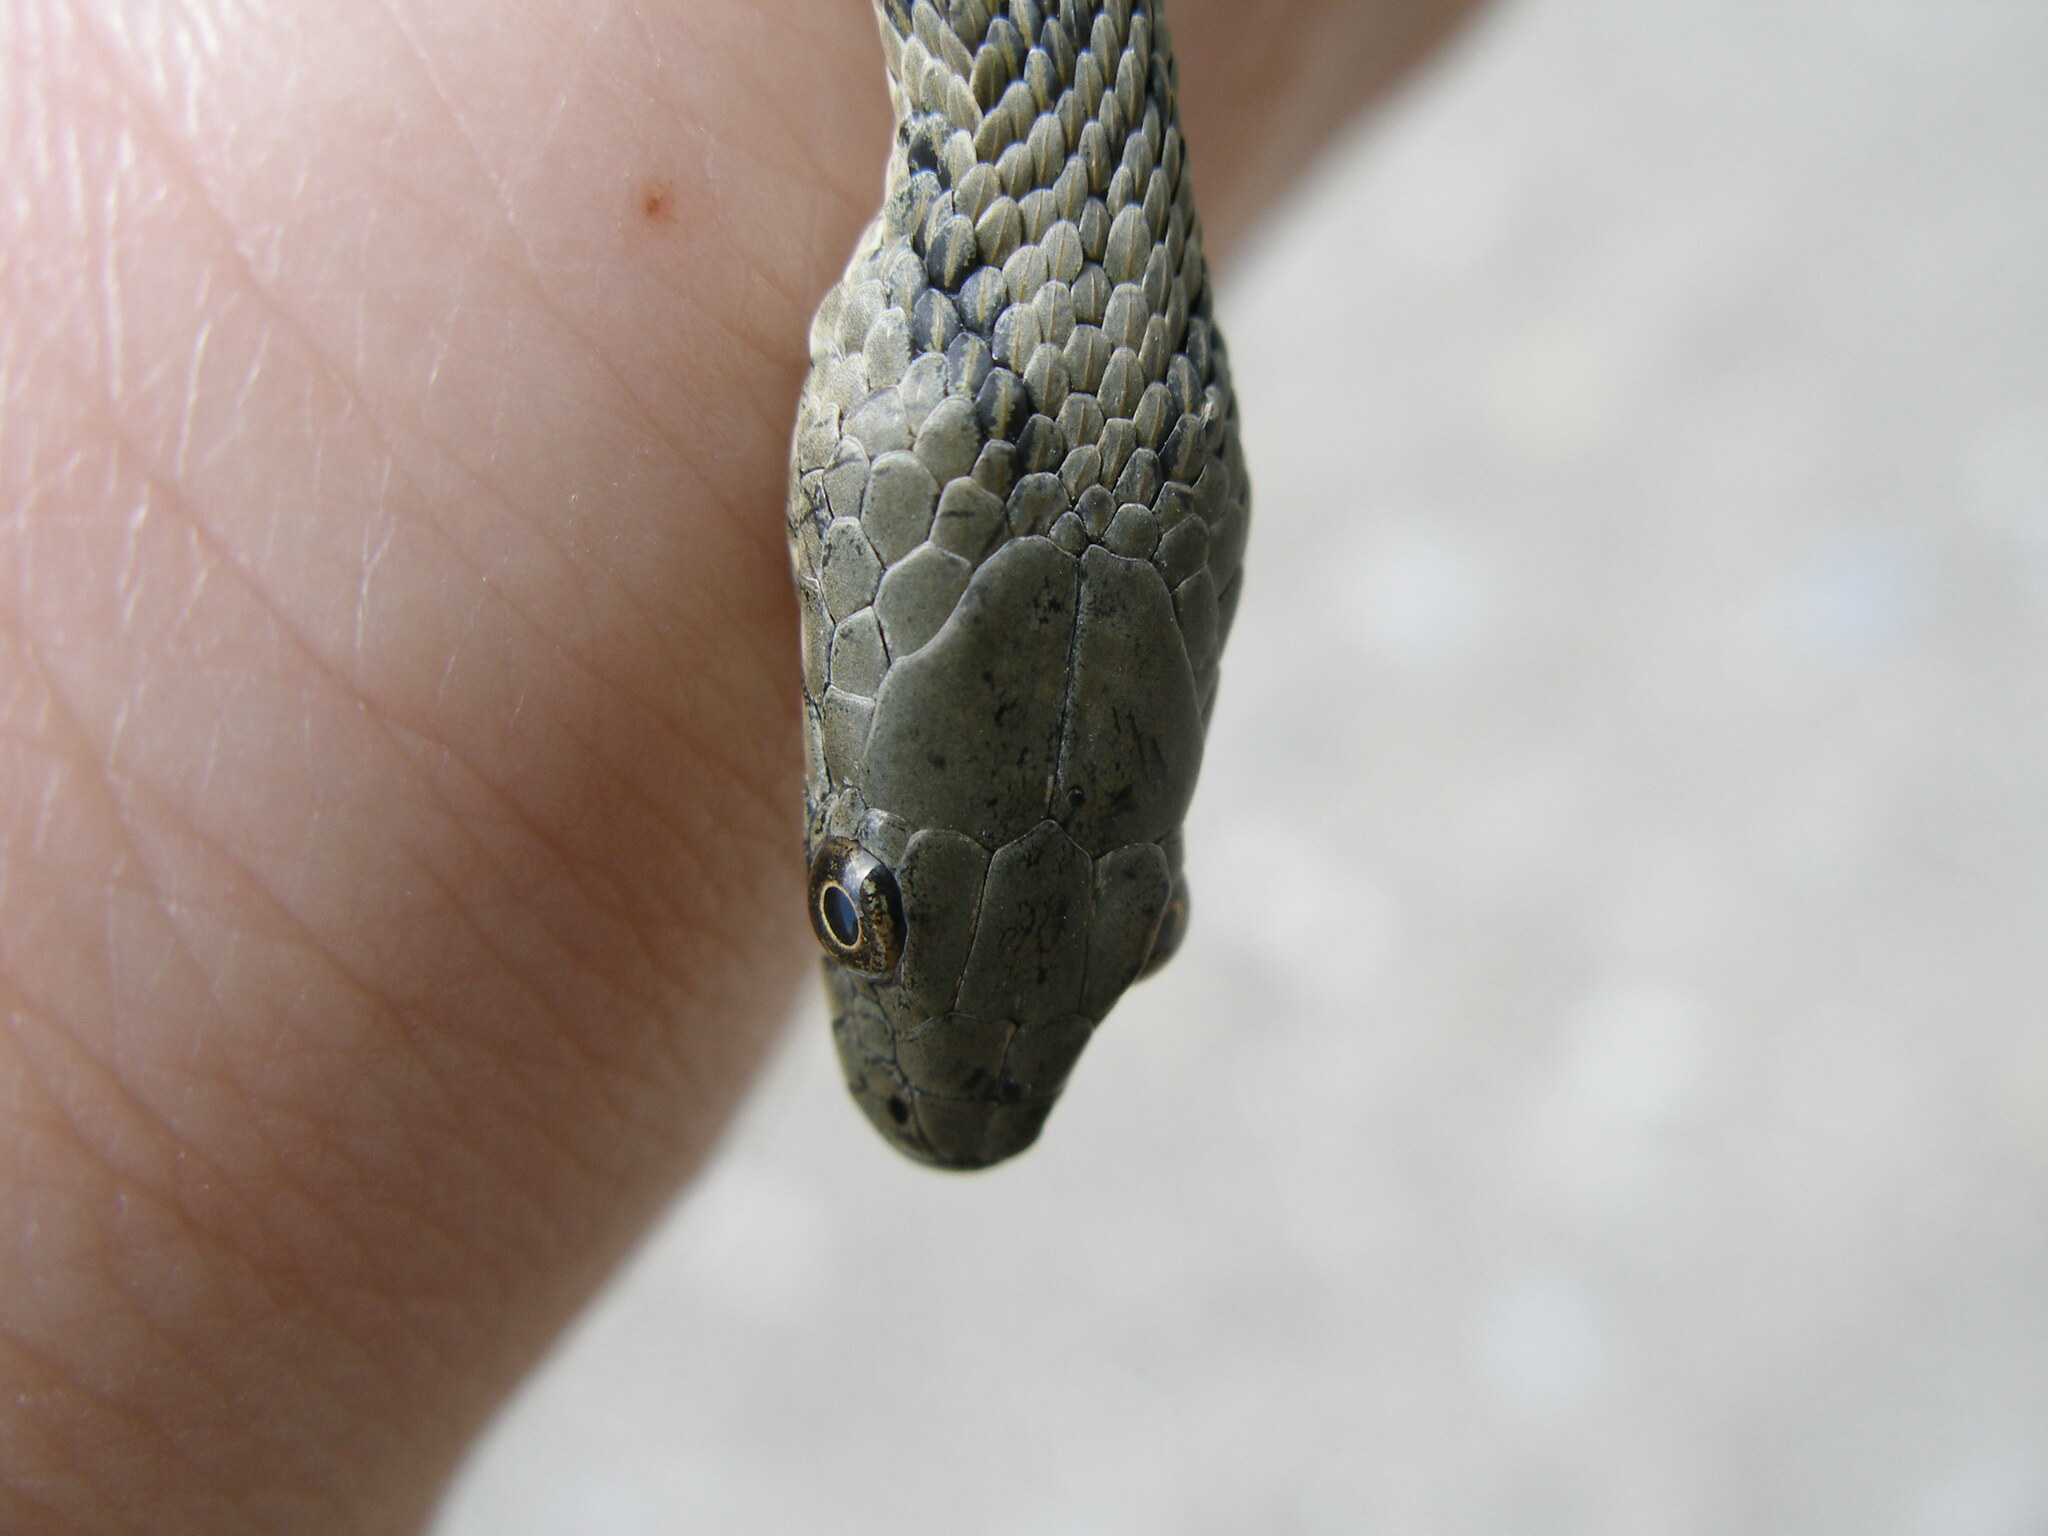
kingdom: Animalia
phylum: Chordata
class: Squamata
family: Colubridae
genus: Natrix
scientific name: Natrix tessellata
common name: Dice snake
